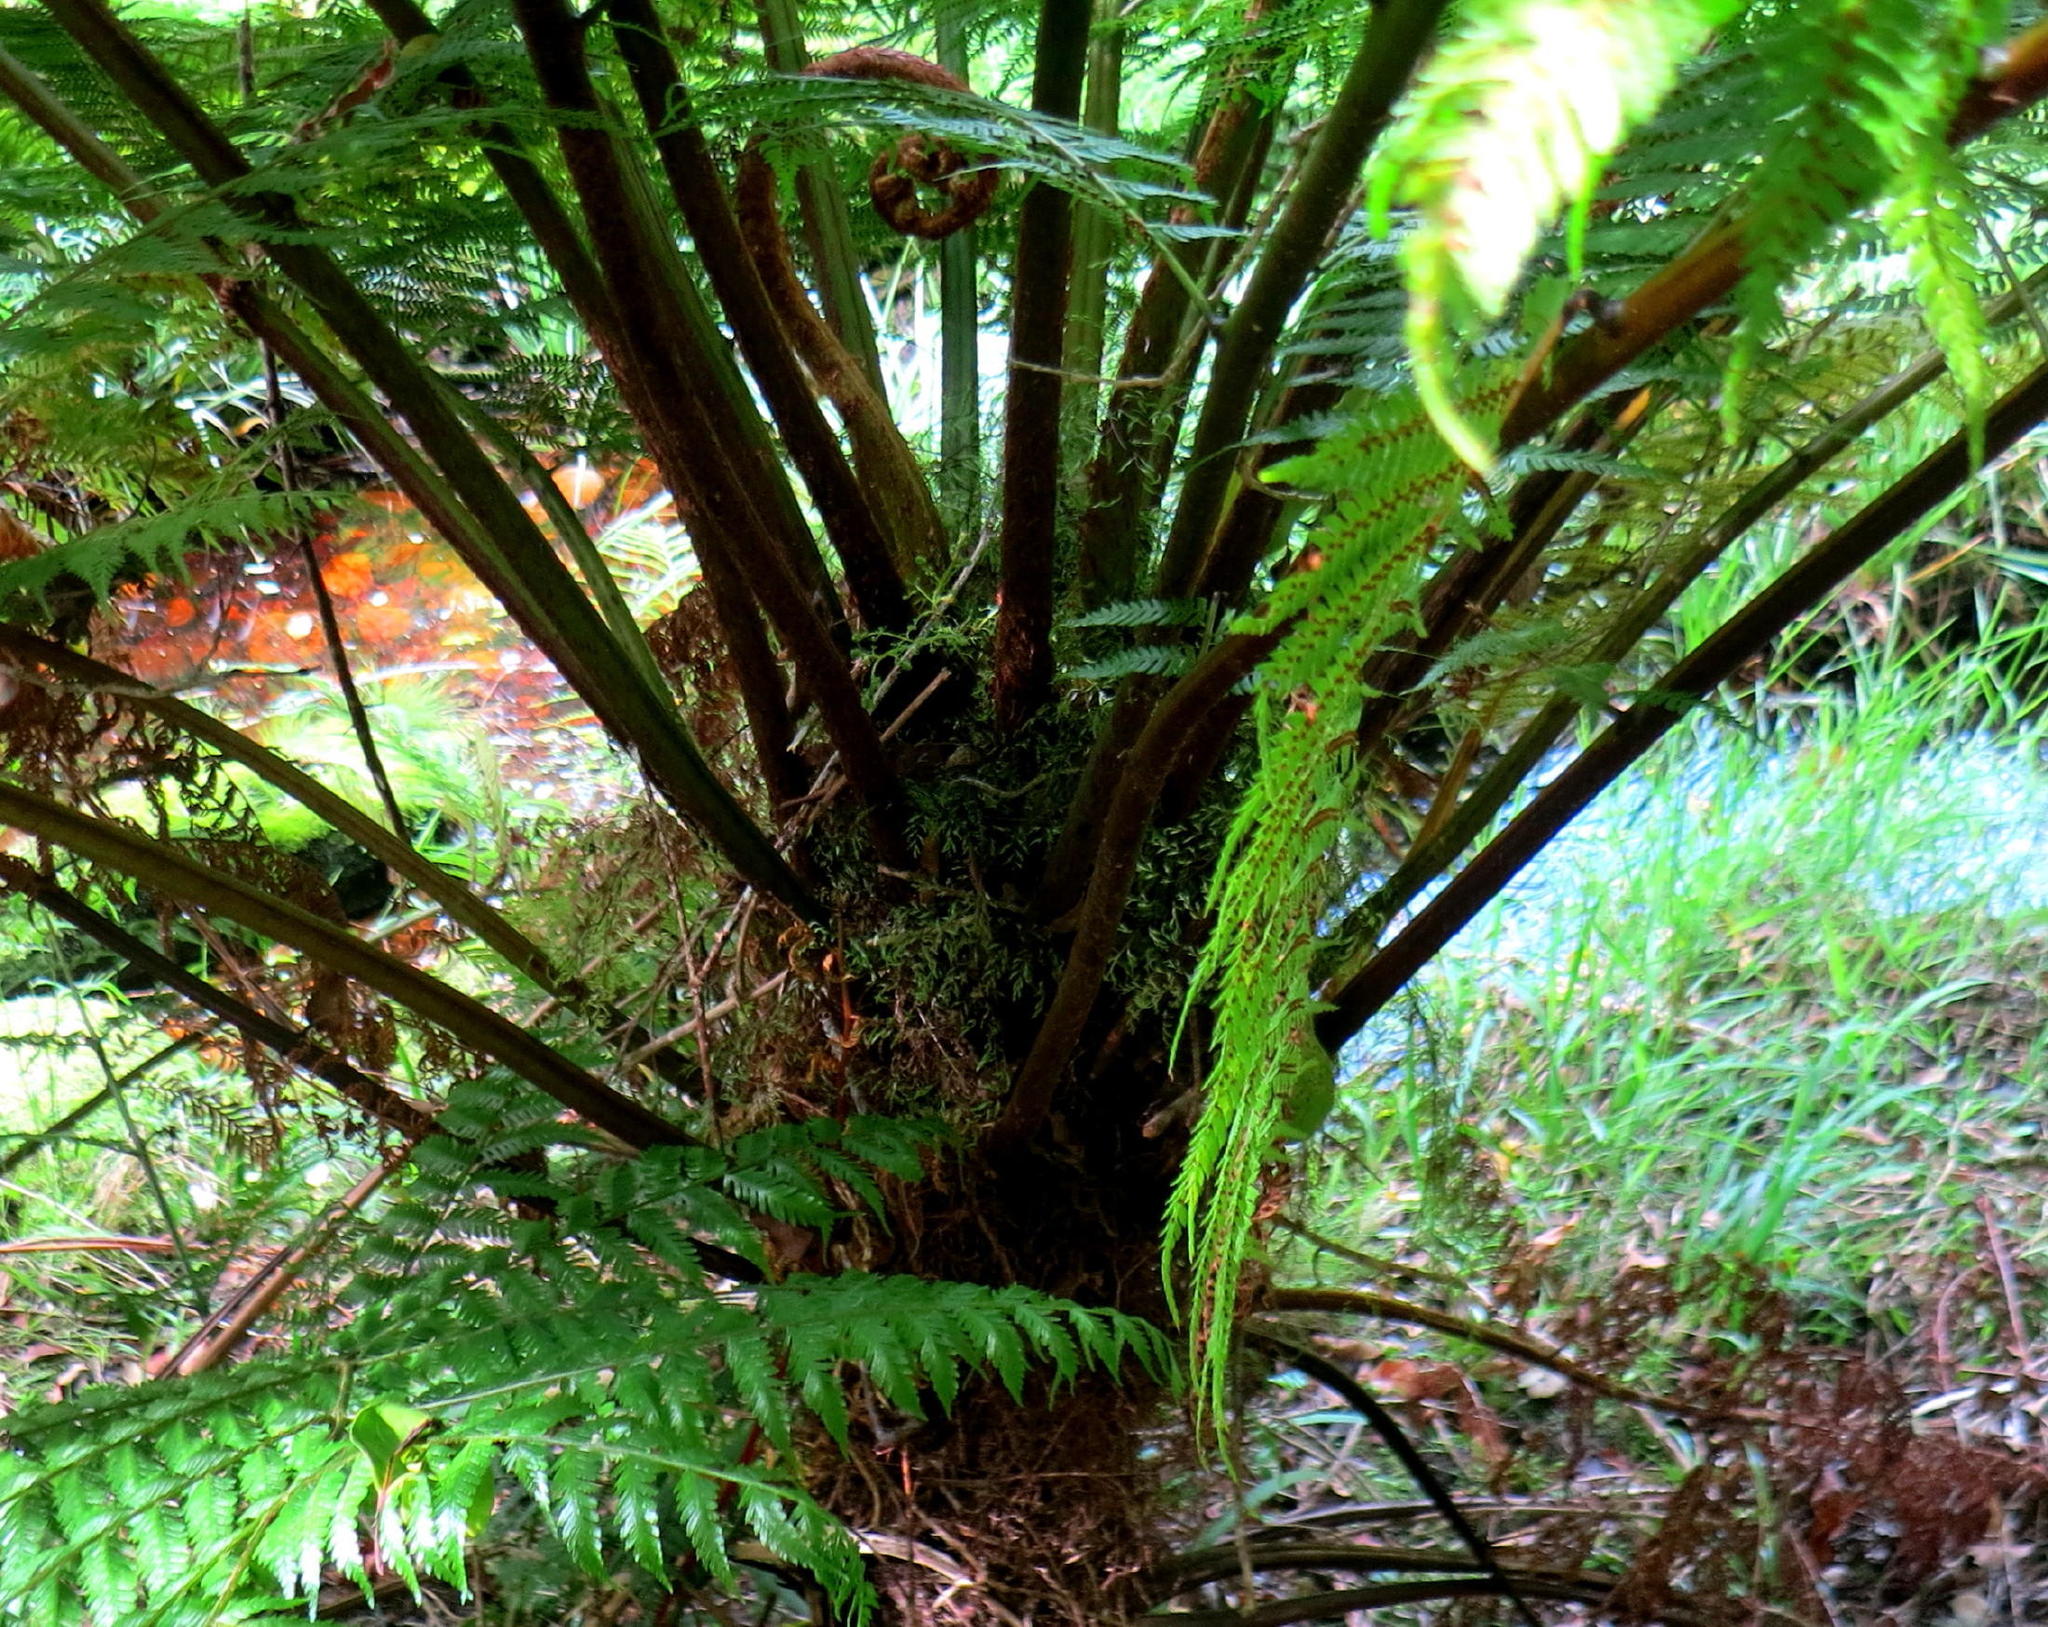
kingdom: Plantae
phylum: Tracheophyta
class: Polypodiopsida
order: Cyatheales
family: Cyatheaceae
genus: Gymnosphaera
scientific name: Gymnosphaera capensis
